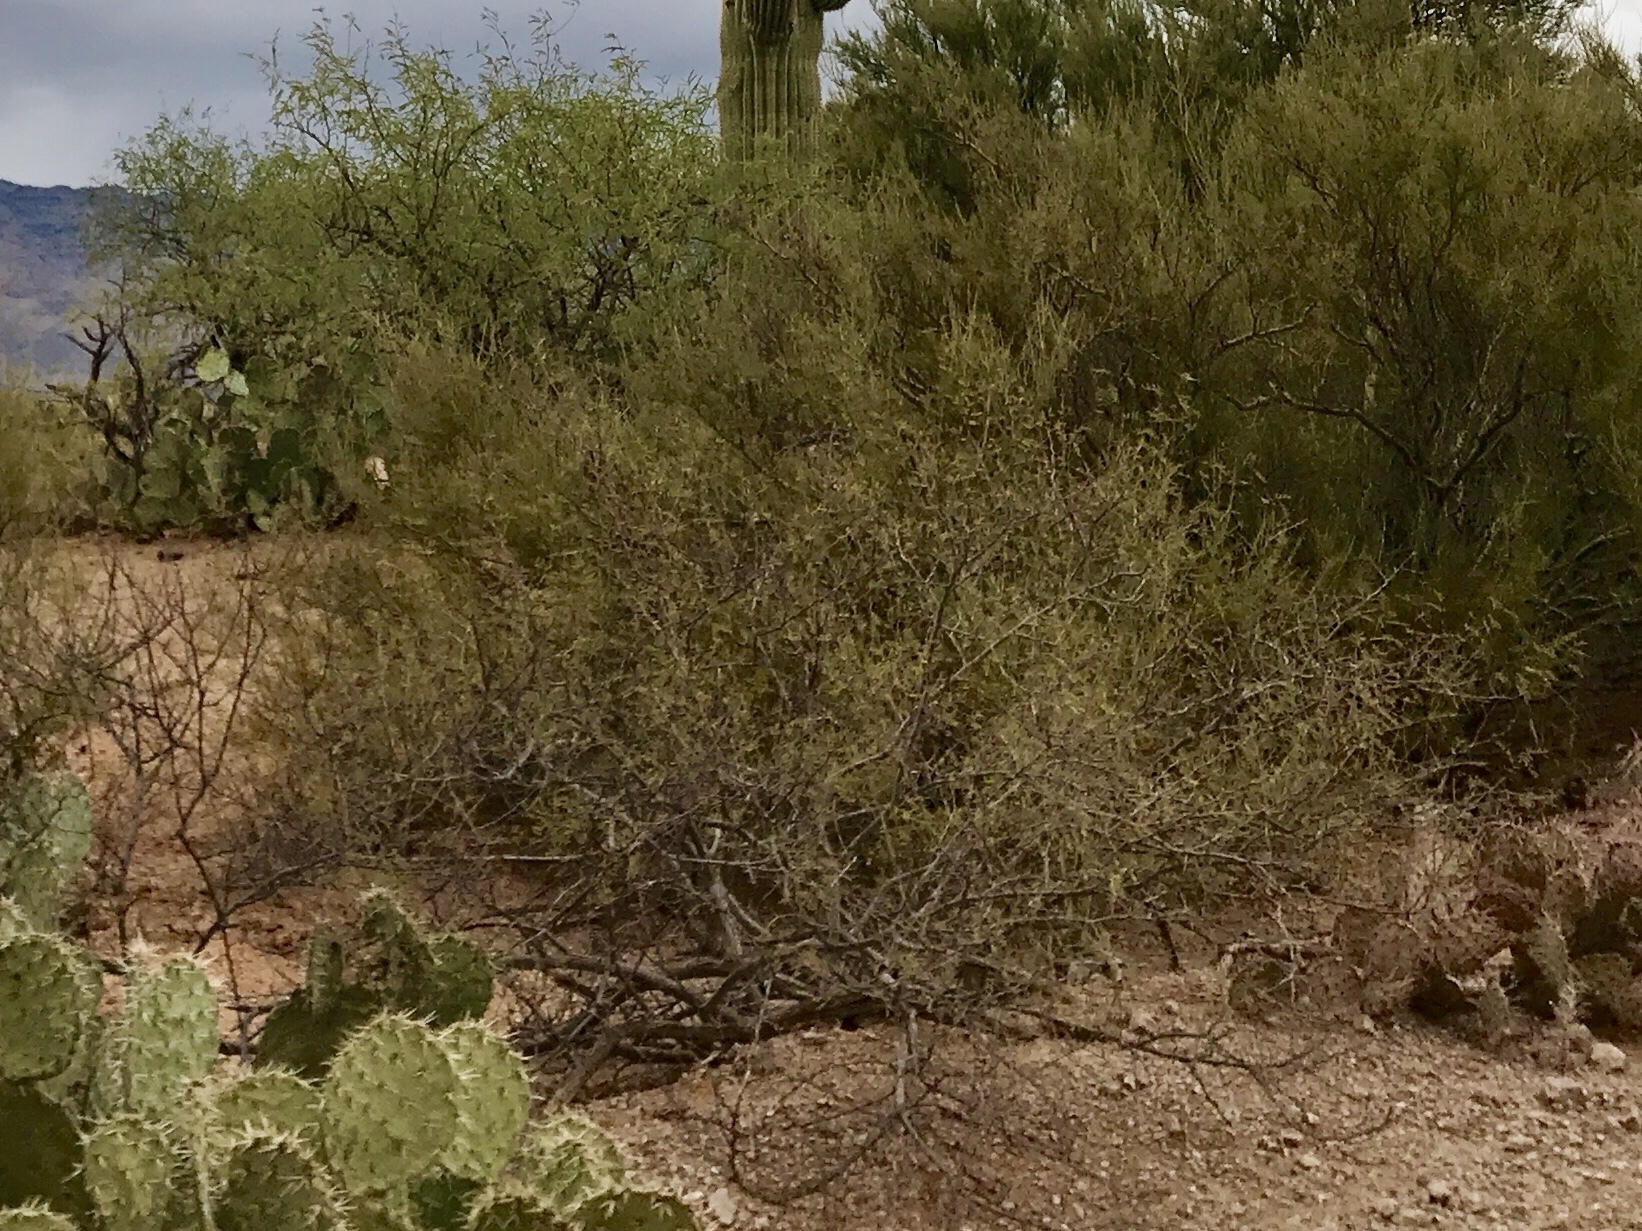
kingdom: Plantae
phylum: Tracheophyta
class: Magnoliopsida
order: Zygophyllales
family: Zygophyllaceae
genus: Larrea
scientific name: Larrea tridentata
